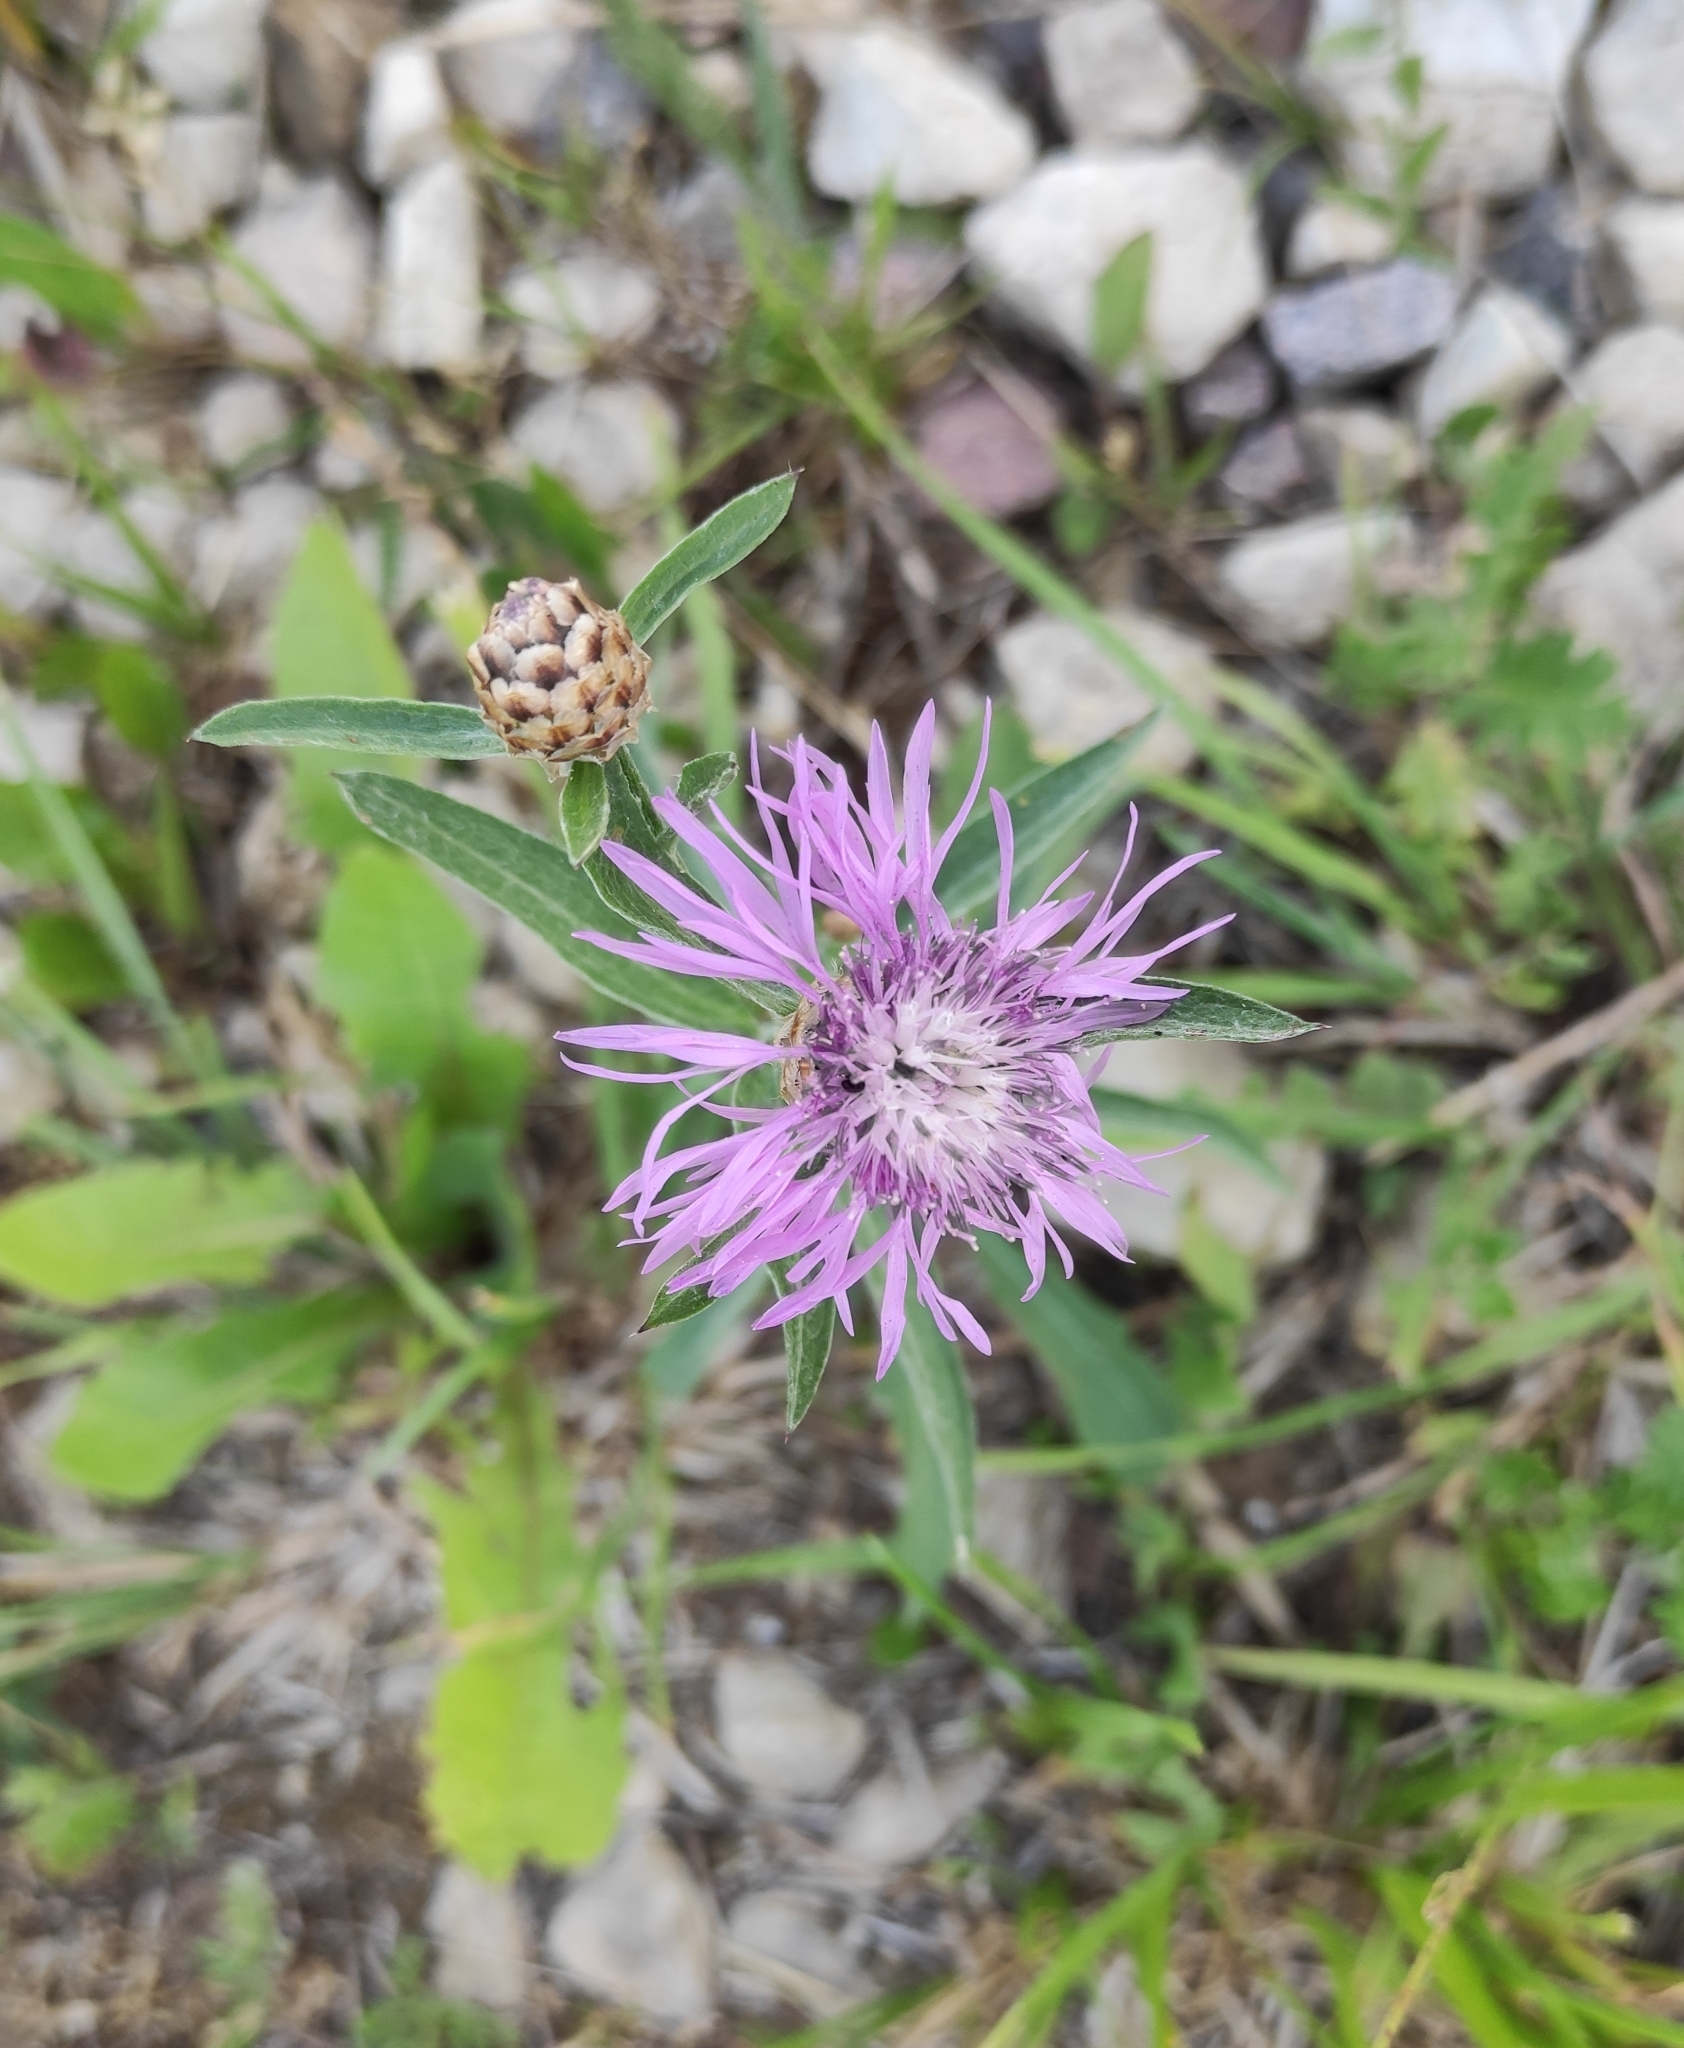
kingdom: Plantae
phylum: Tracheophyta
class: Magnoliopsida
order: Asterales
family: Asteraceae
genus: Centaurea
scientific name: Centaurea jacea
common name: Brown knapweed
